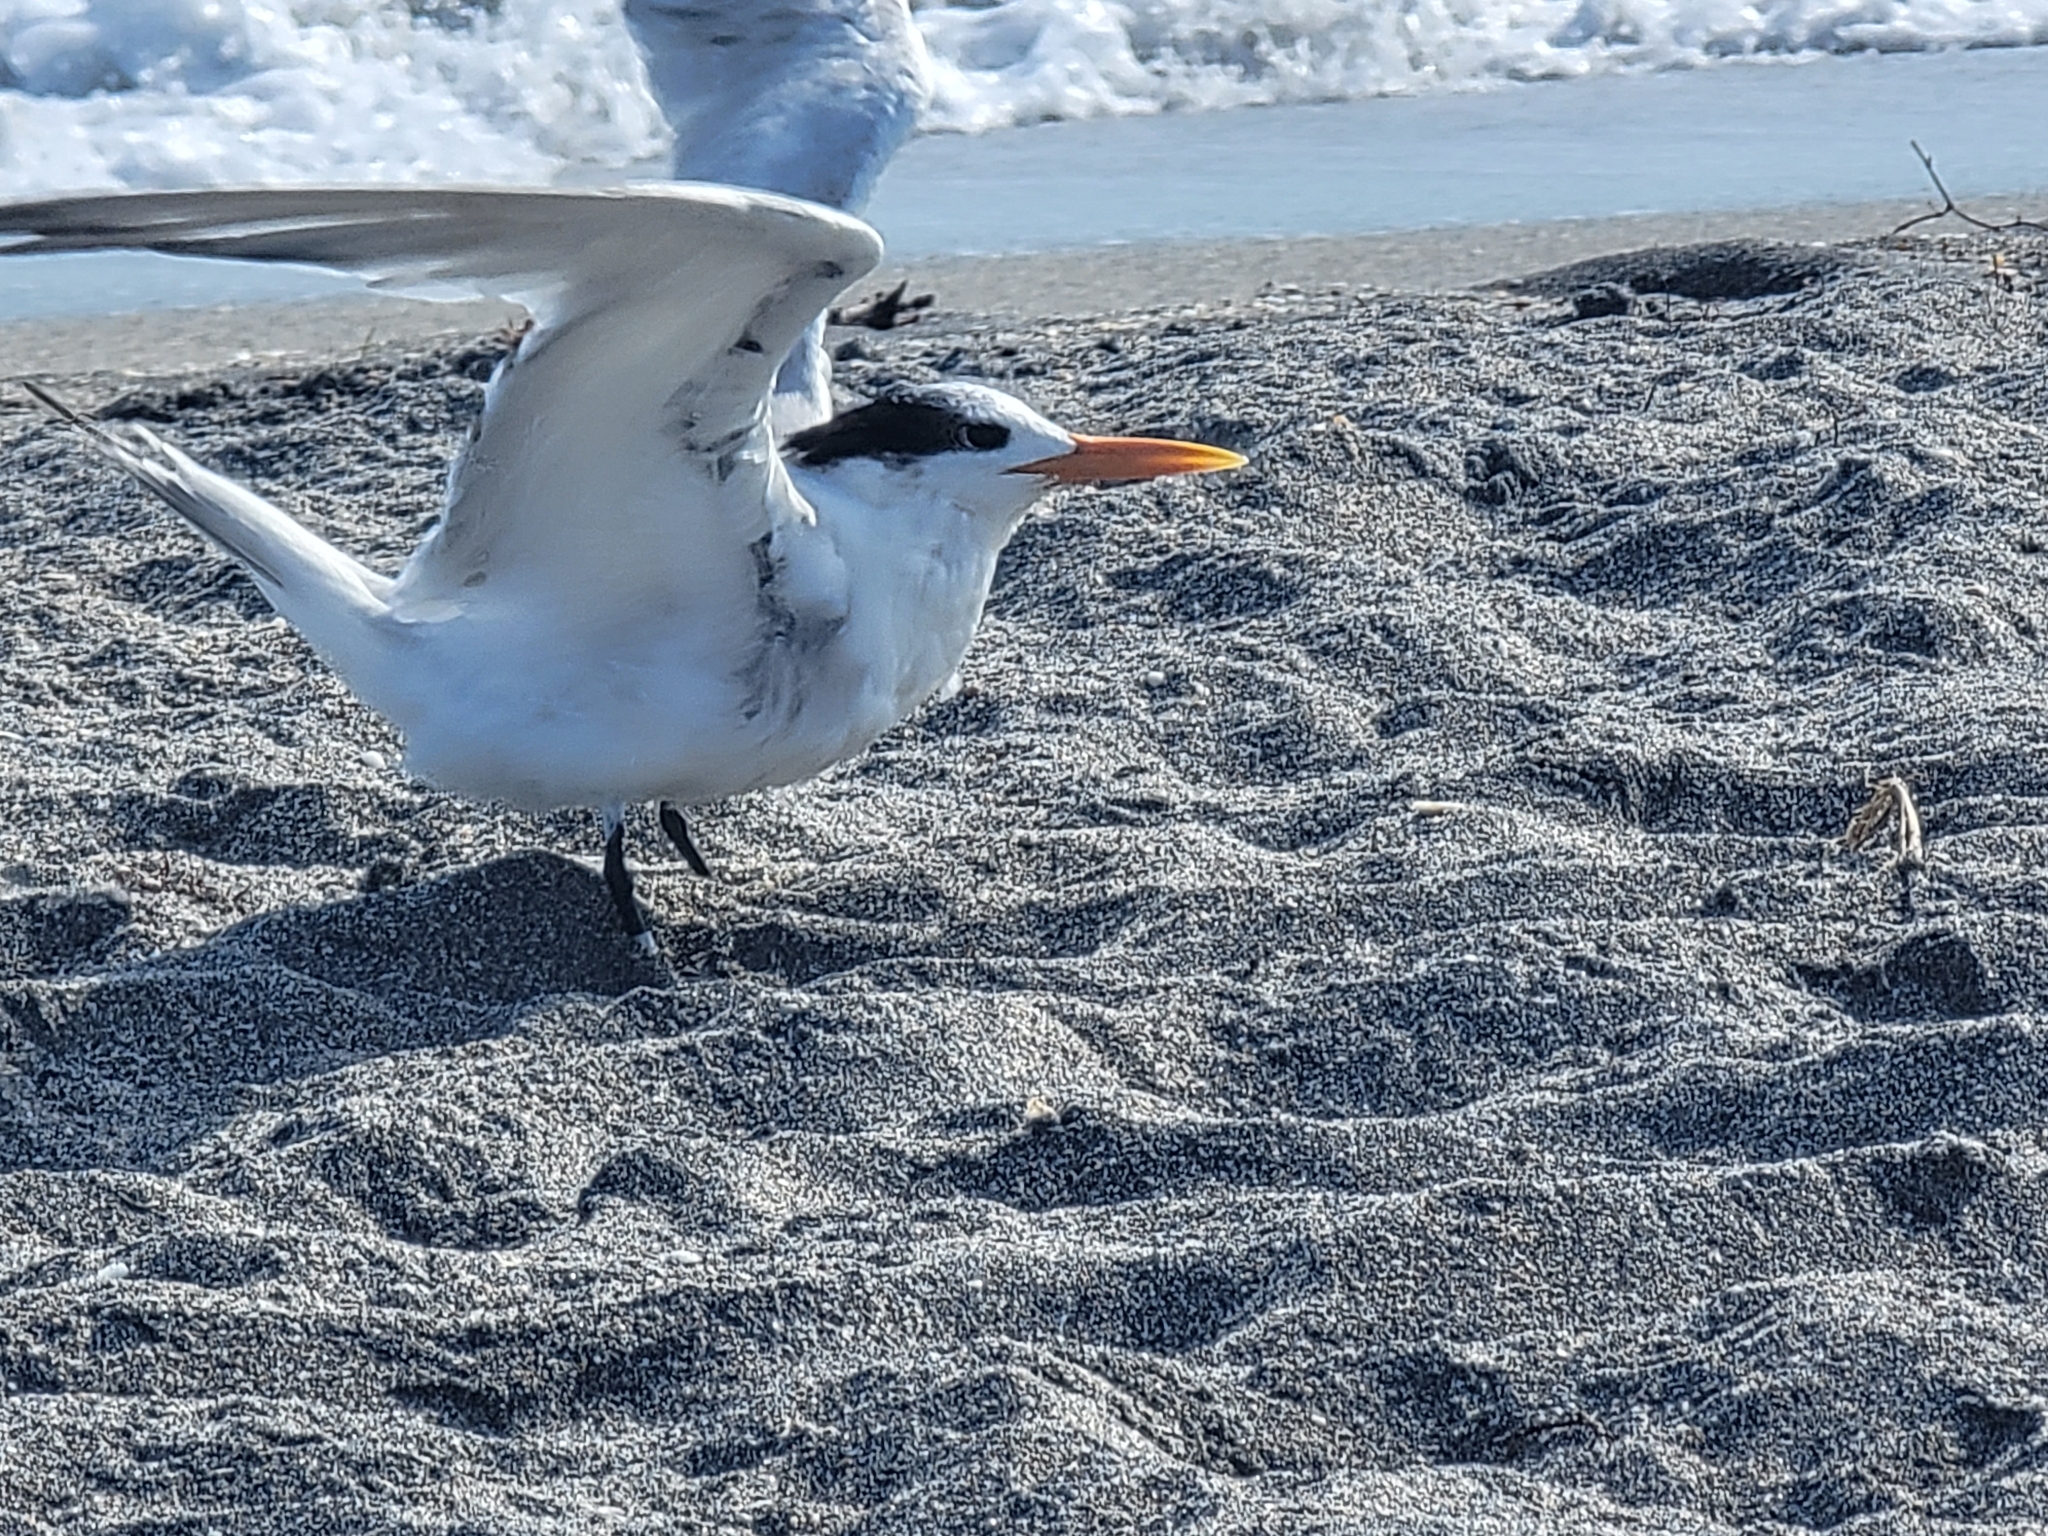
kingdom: Animalia
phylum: Chordata
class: Aves
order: Charadriiformes
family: Laridae
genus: Thalasseus
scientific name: Thalasseus maximus
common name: Royal tern
